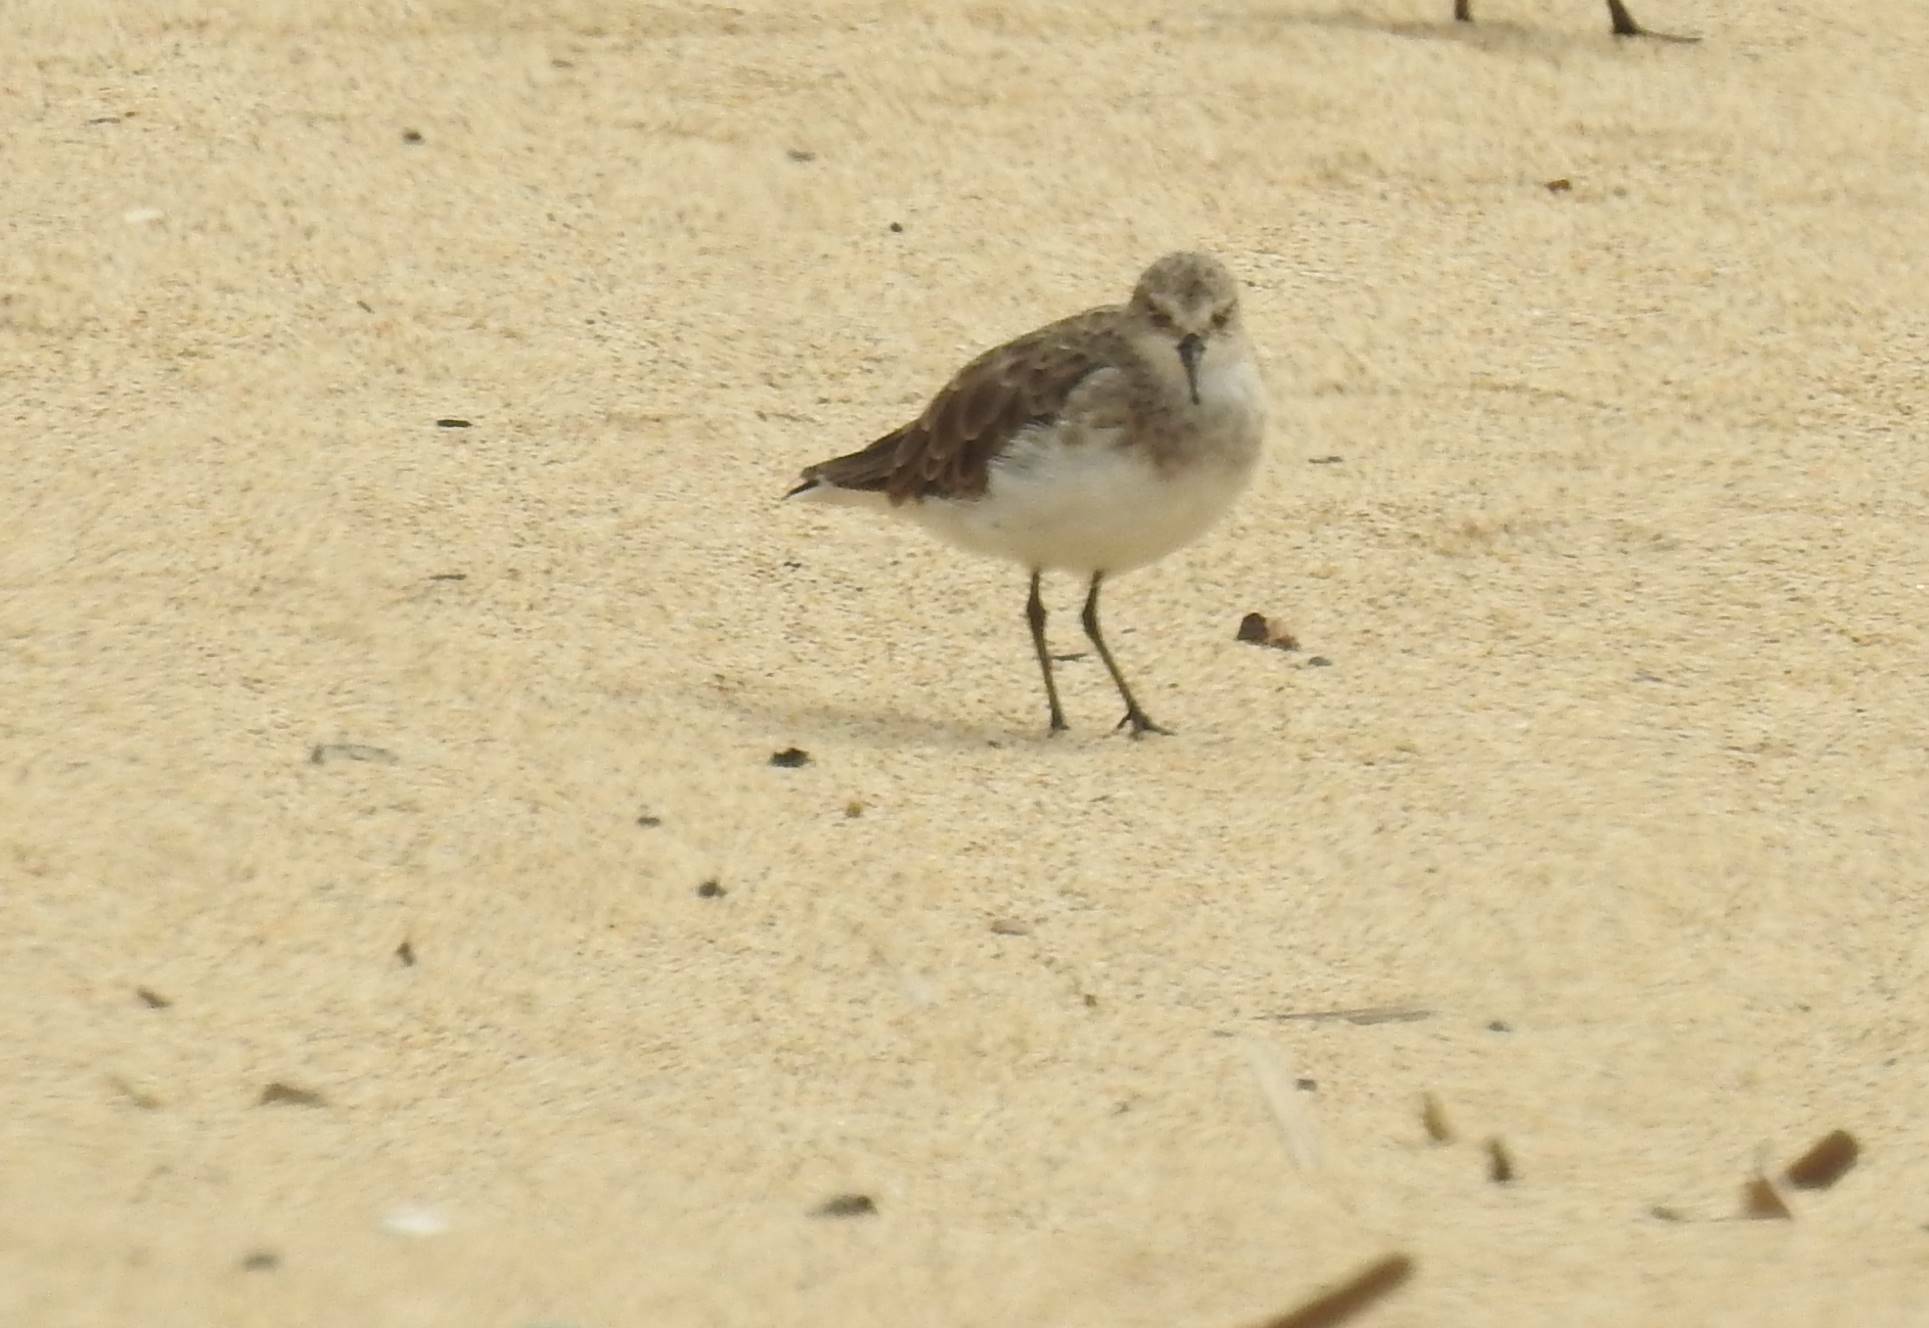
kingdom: Animalia
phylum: Chordata
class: Aves
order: Charadriiformes
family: Scolopacidae
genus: Calidris
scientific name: Calidris temminckii
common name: Temminck's stint
